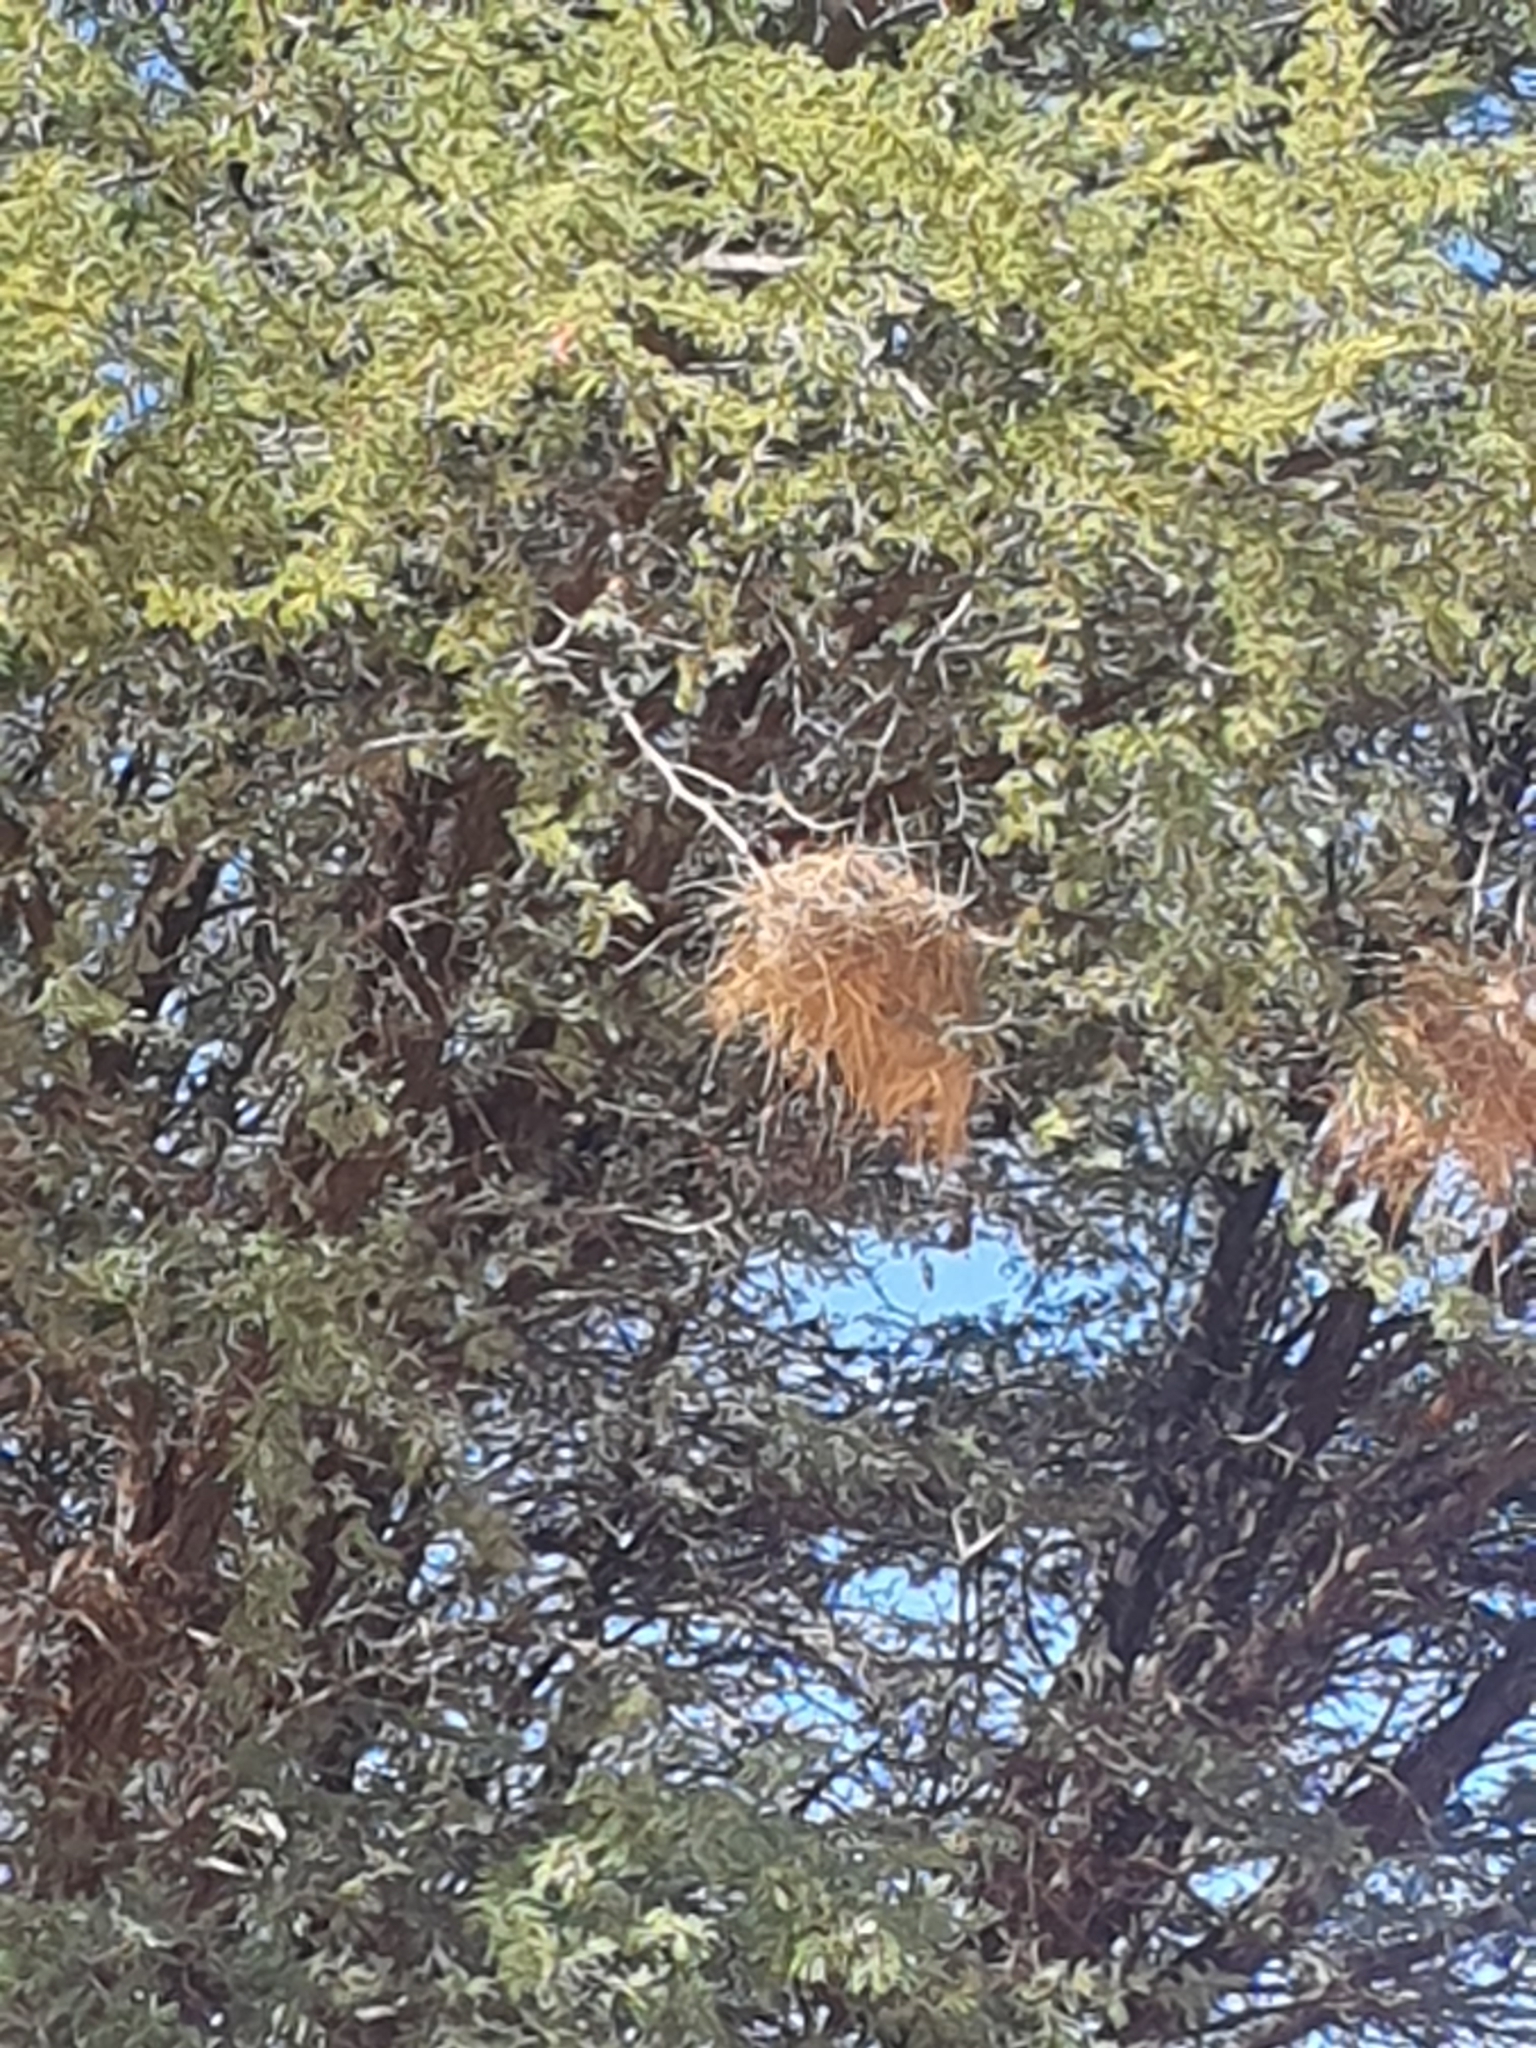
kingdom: Animalia
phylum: Chordata
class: Aves
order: Passeriformes
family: Passeridae
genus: Plocepasser
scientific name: Plocepasser mahali
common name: White-browed sparrow-weaver
